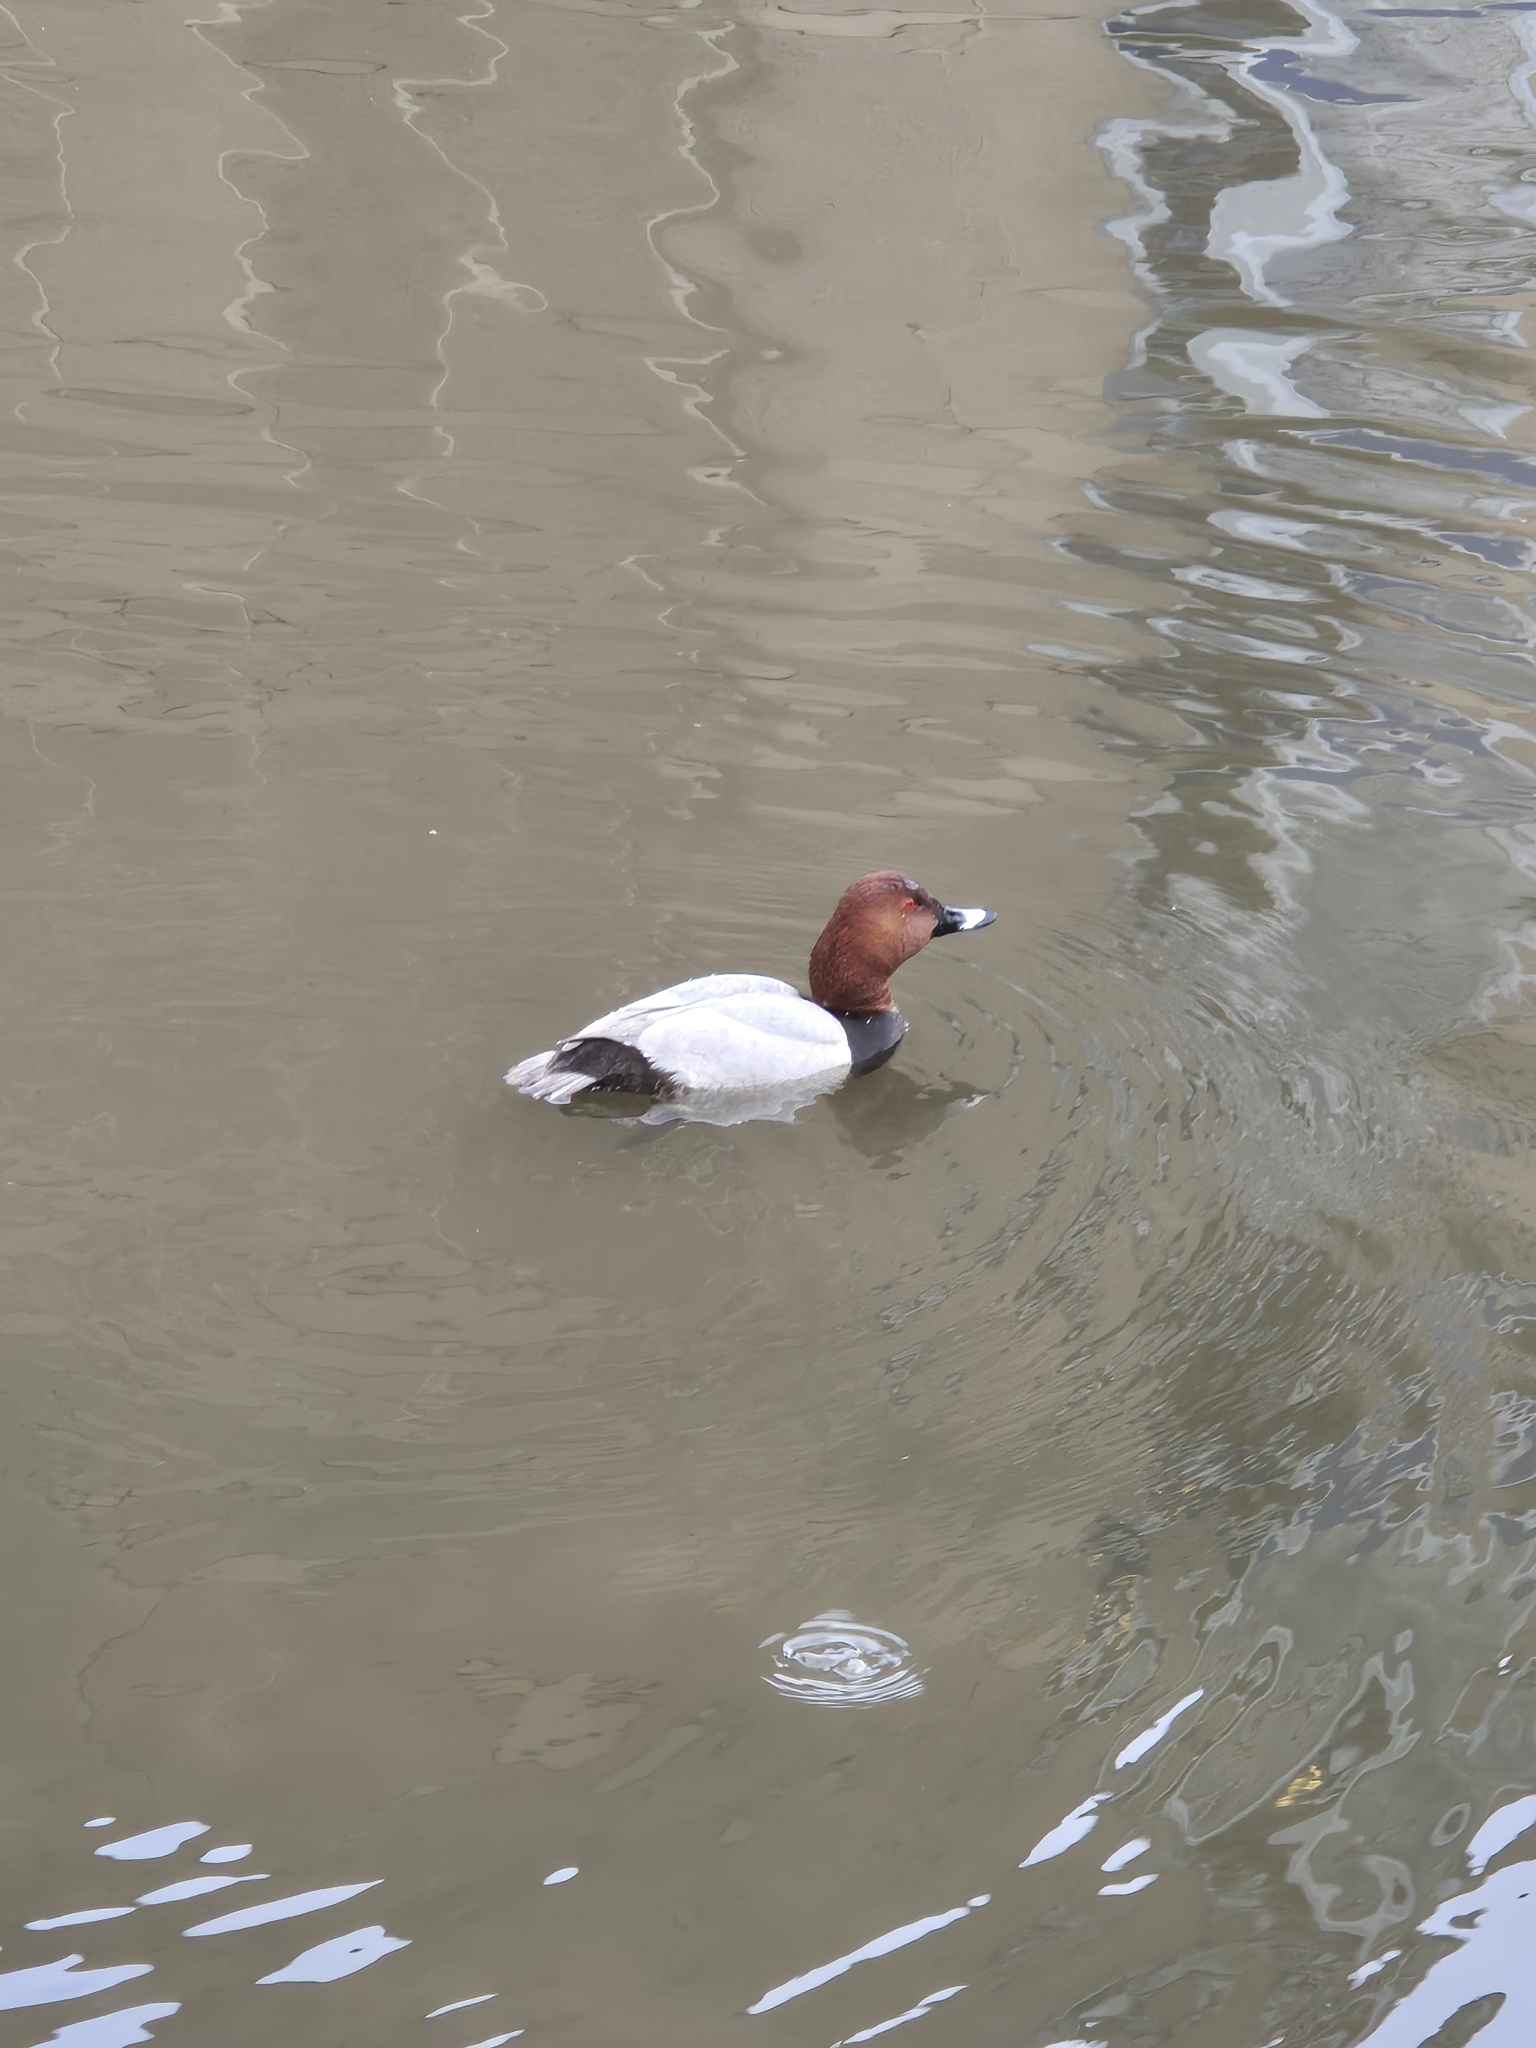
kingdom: Animalia
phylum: Chordata
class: Aves
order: Anseriformes
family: Anatidae
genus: Aythya
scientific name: Aythya ferina
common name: Common pochard
